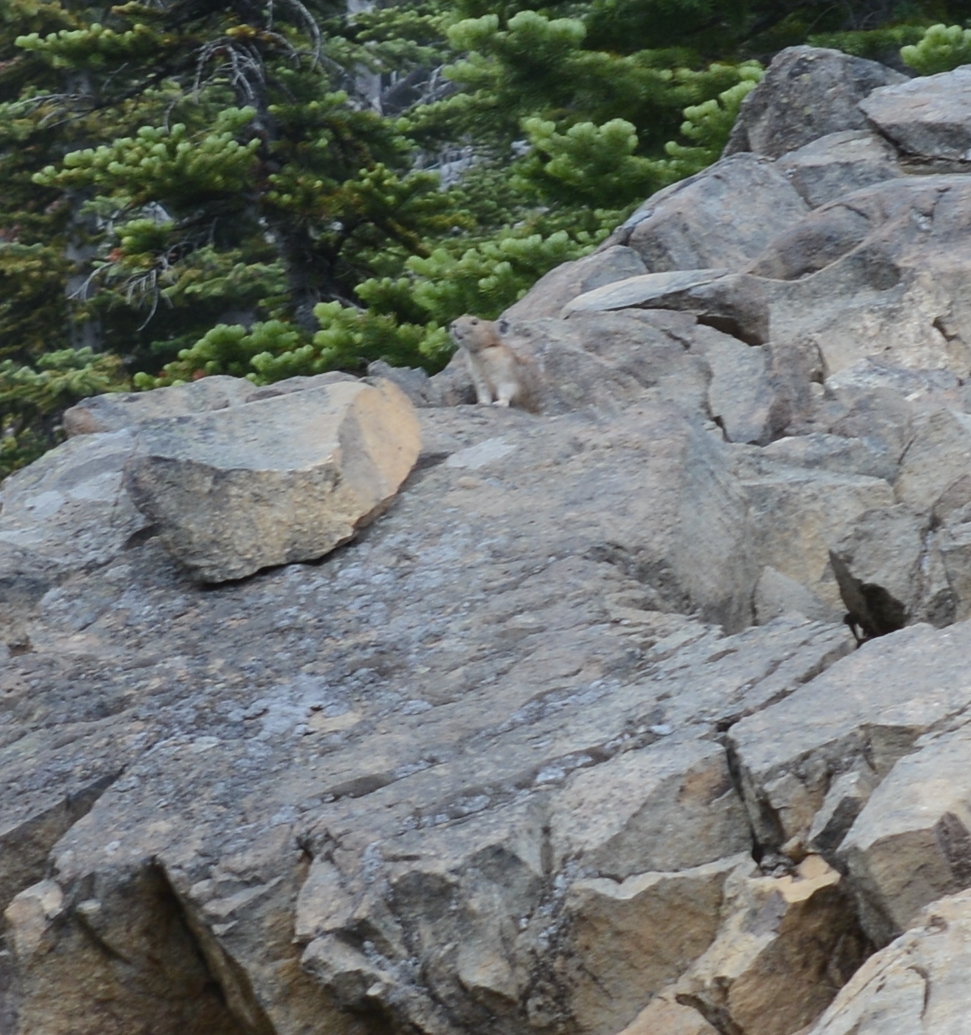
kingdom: Animalia
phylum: Chordata
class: Mammalia
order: Lagomorpha
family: Ochotonidae
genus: Ochotona
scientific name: Ochotona princeps
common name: American pika
